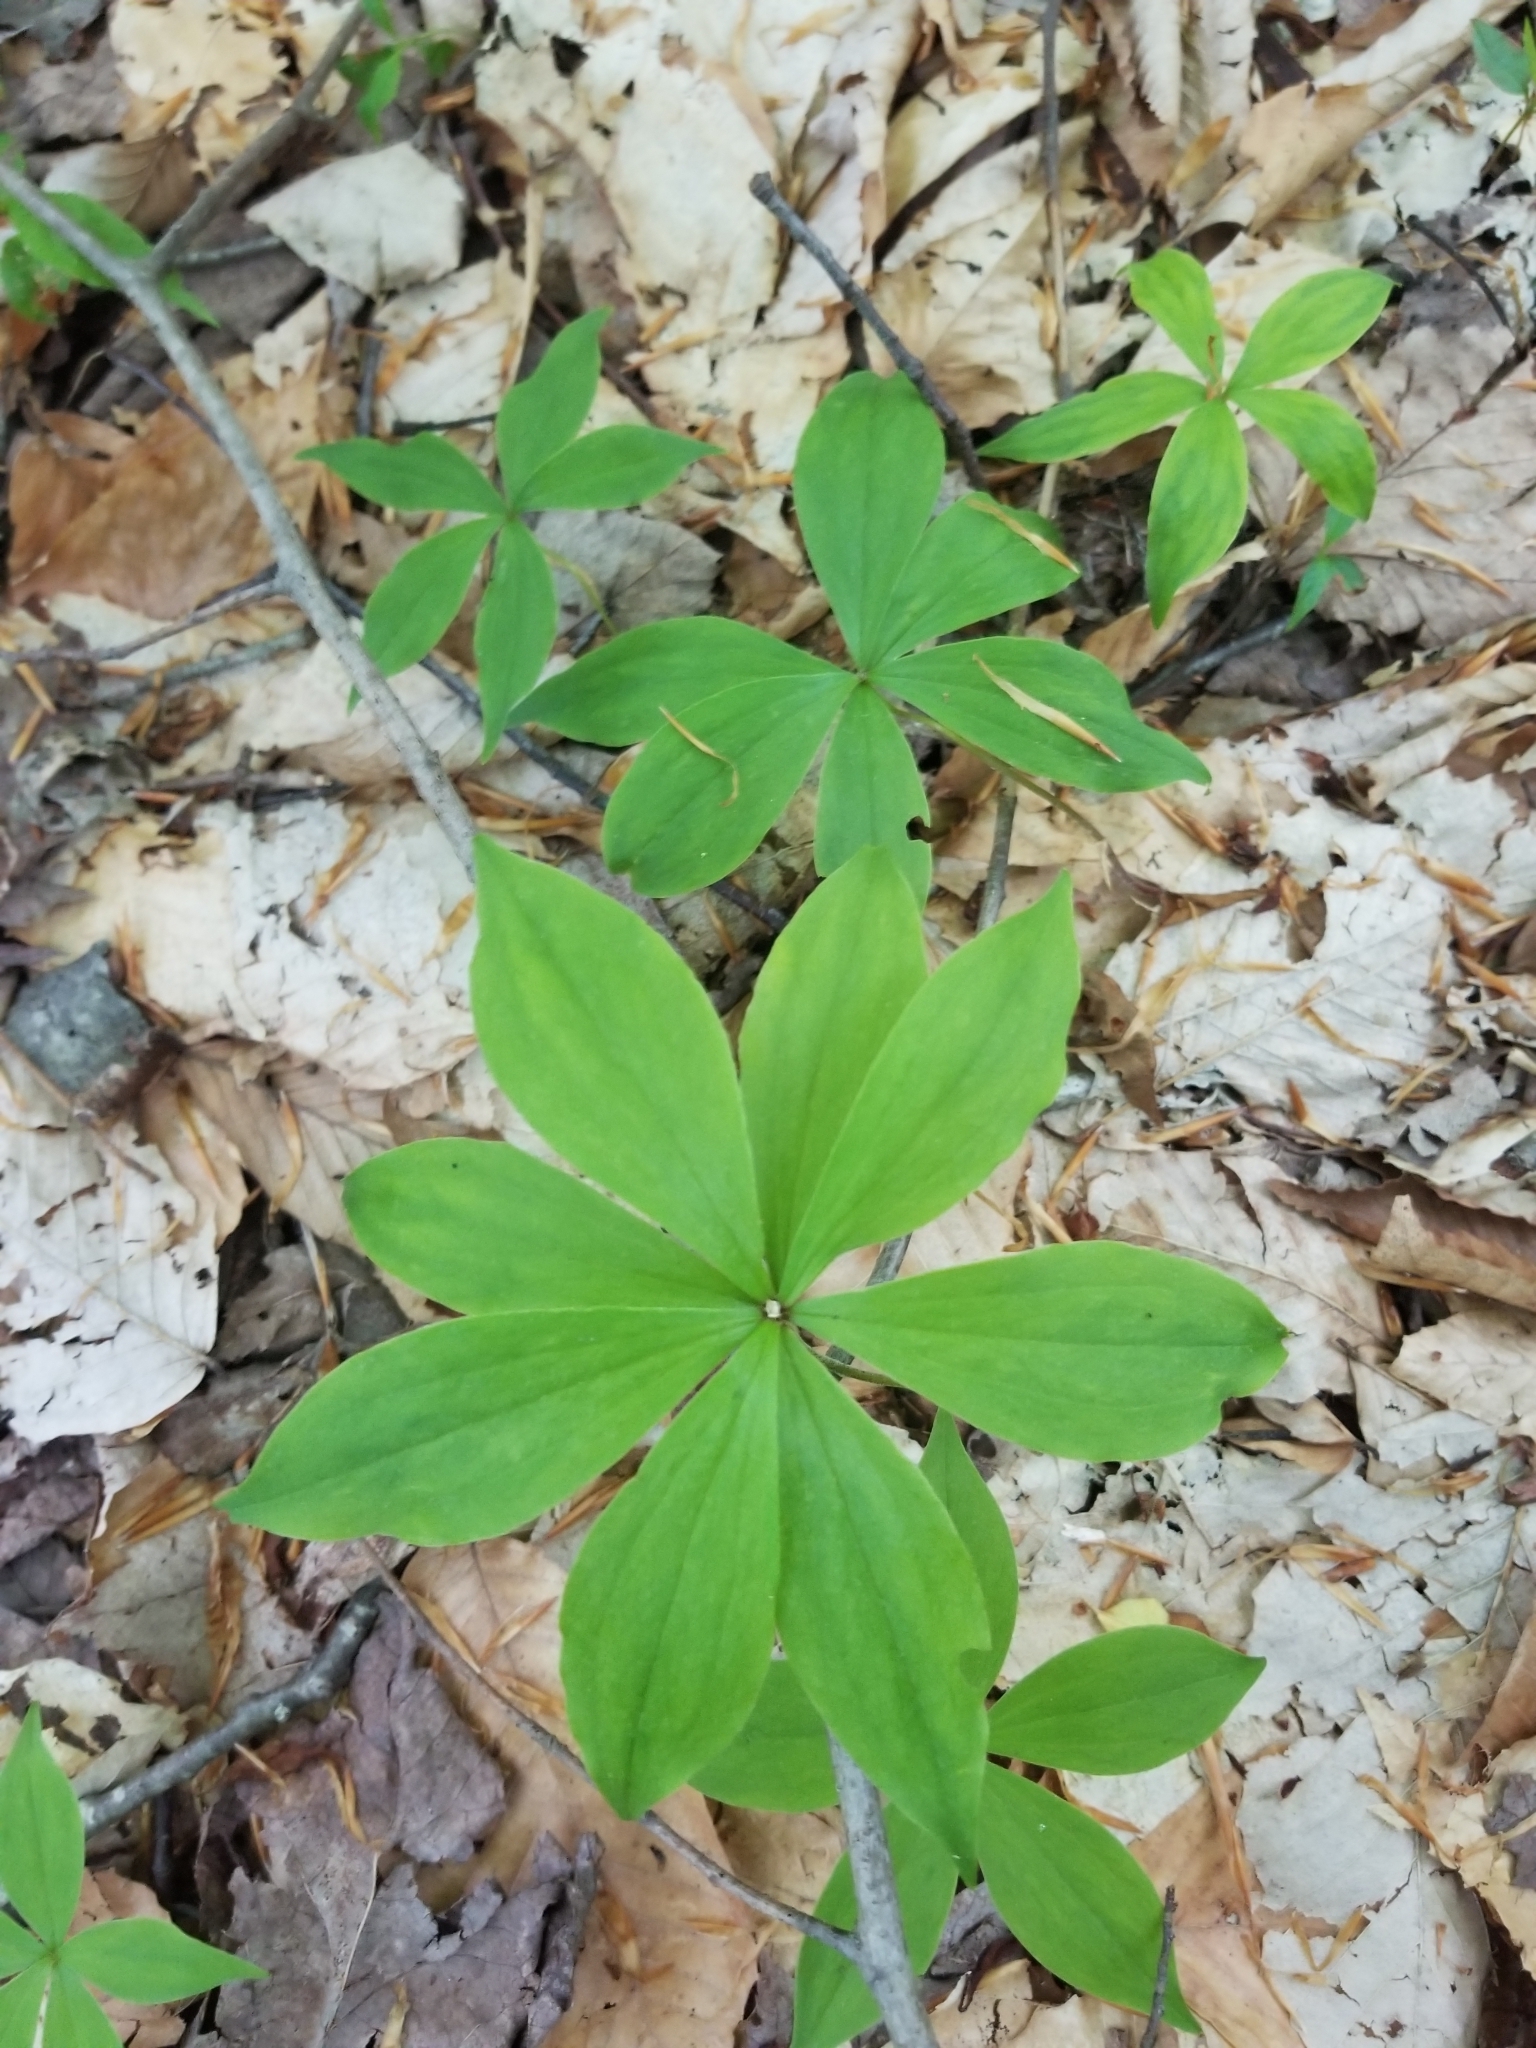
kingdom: Plantae
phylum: Tracheophyta
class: Liliopsida
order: Liliales
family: Liliaceae
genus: Medeola
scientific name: Medeola virginiana
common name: Indian cucumber-root
